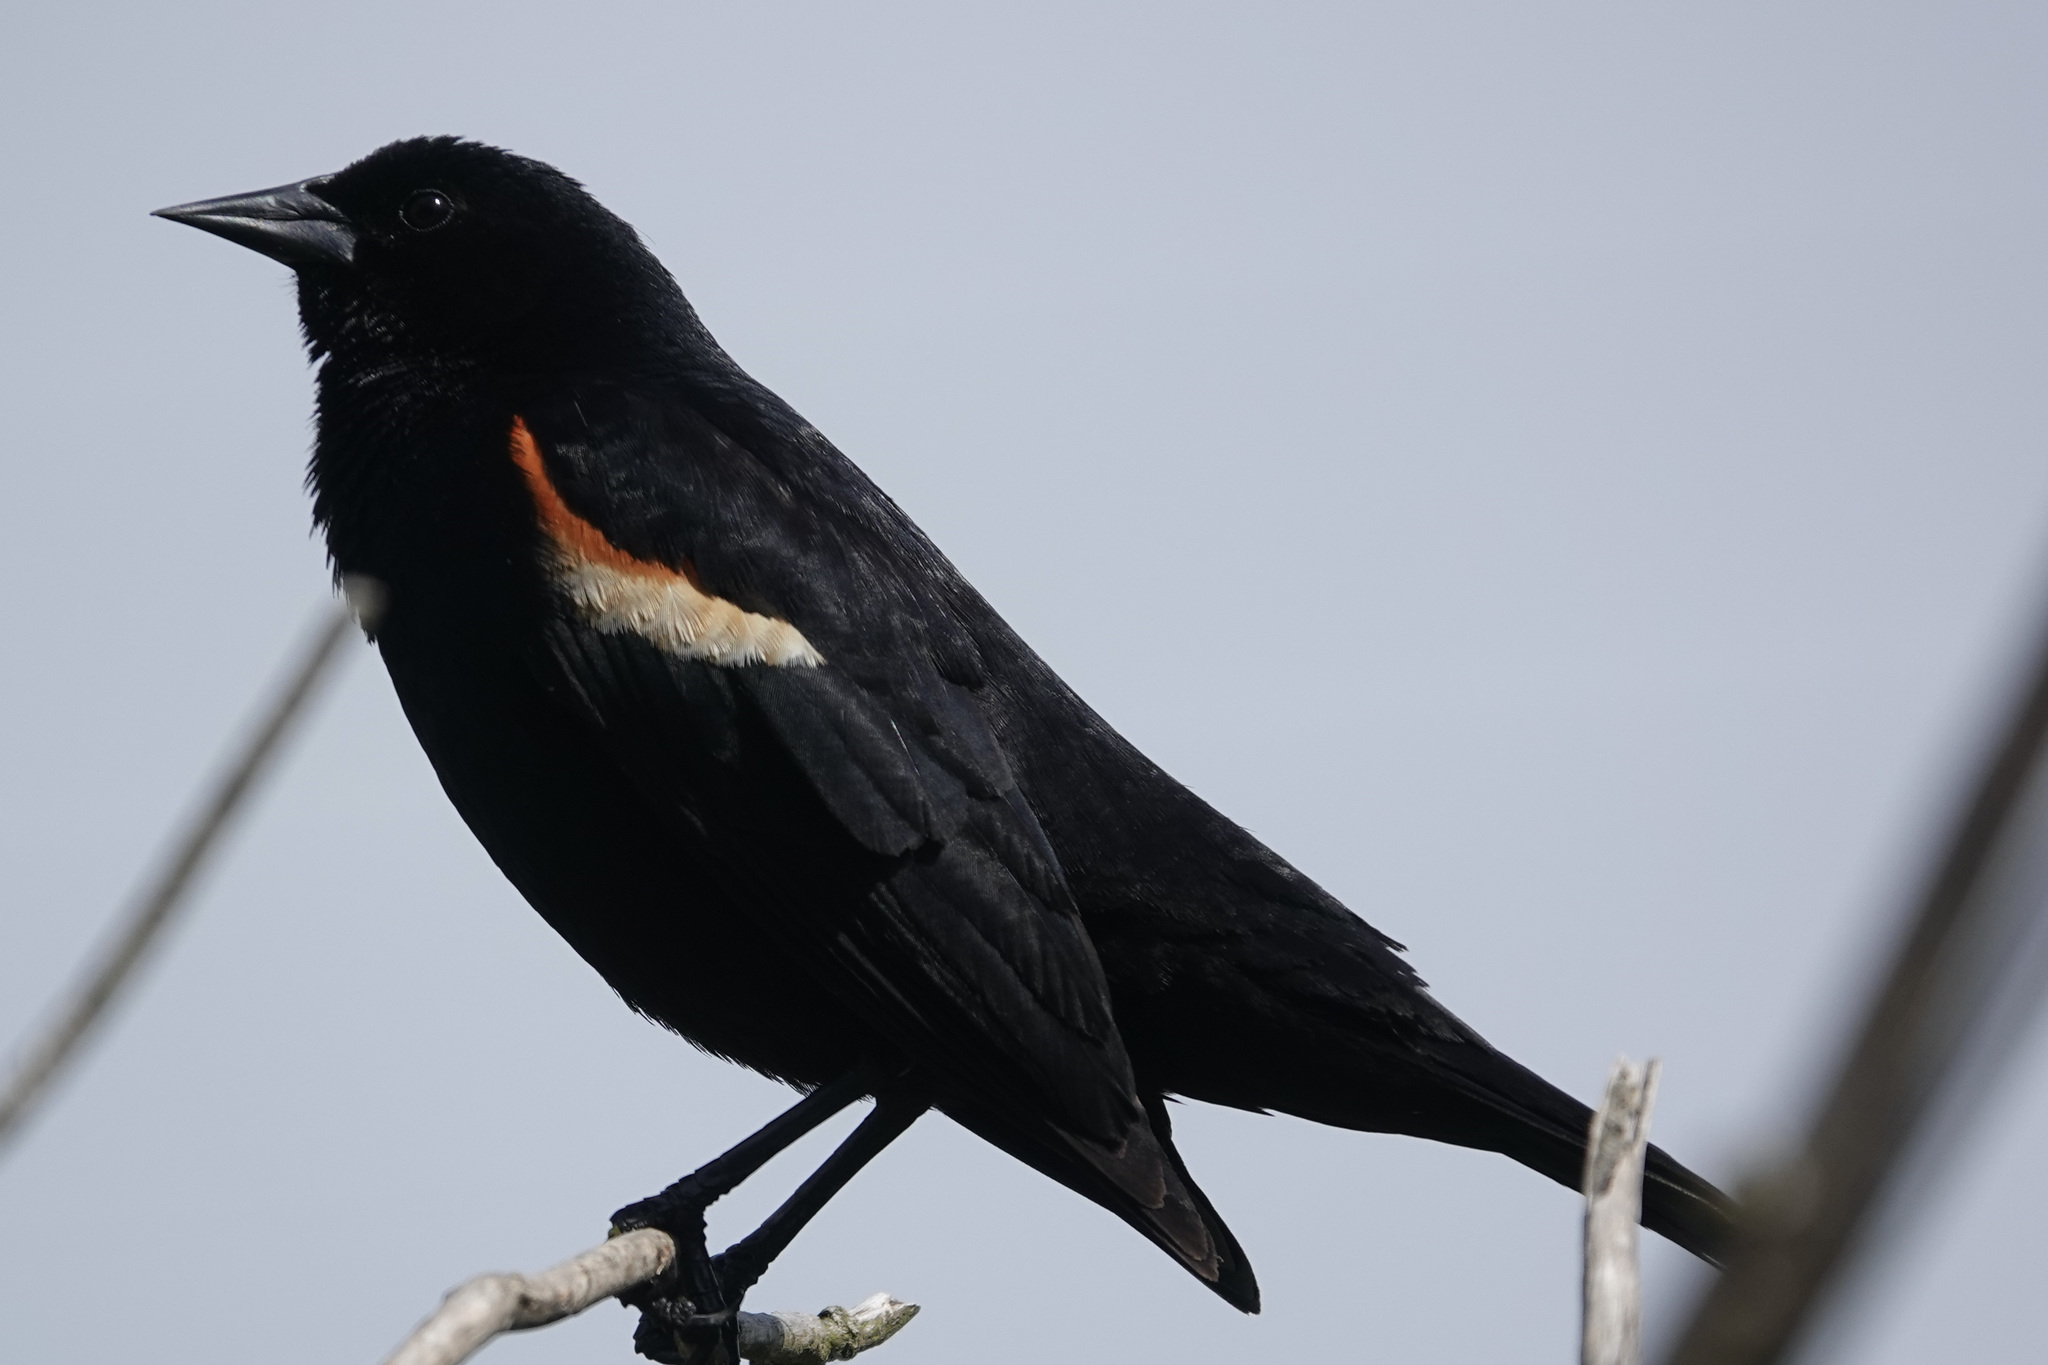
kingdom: Animalia
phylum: Chordata
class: Aves
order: Passeriformes
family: Icteridae
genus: Agelaius
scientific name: Agelaius phoeniceus
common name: Red-winged blackbird
